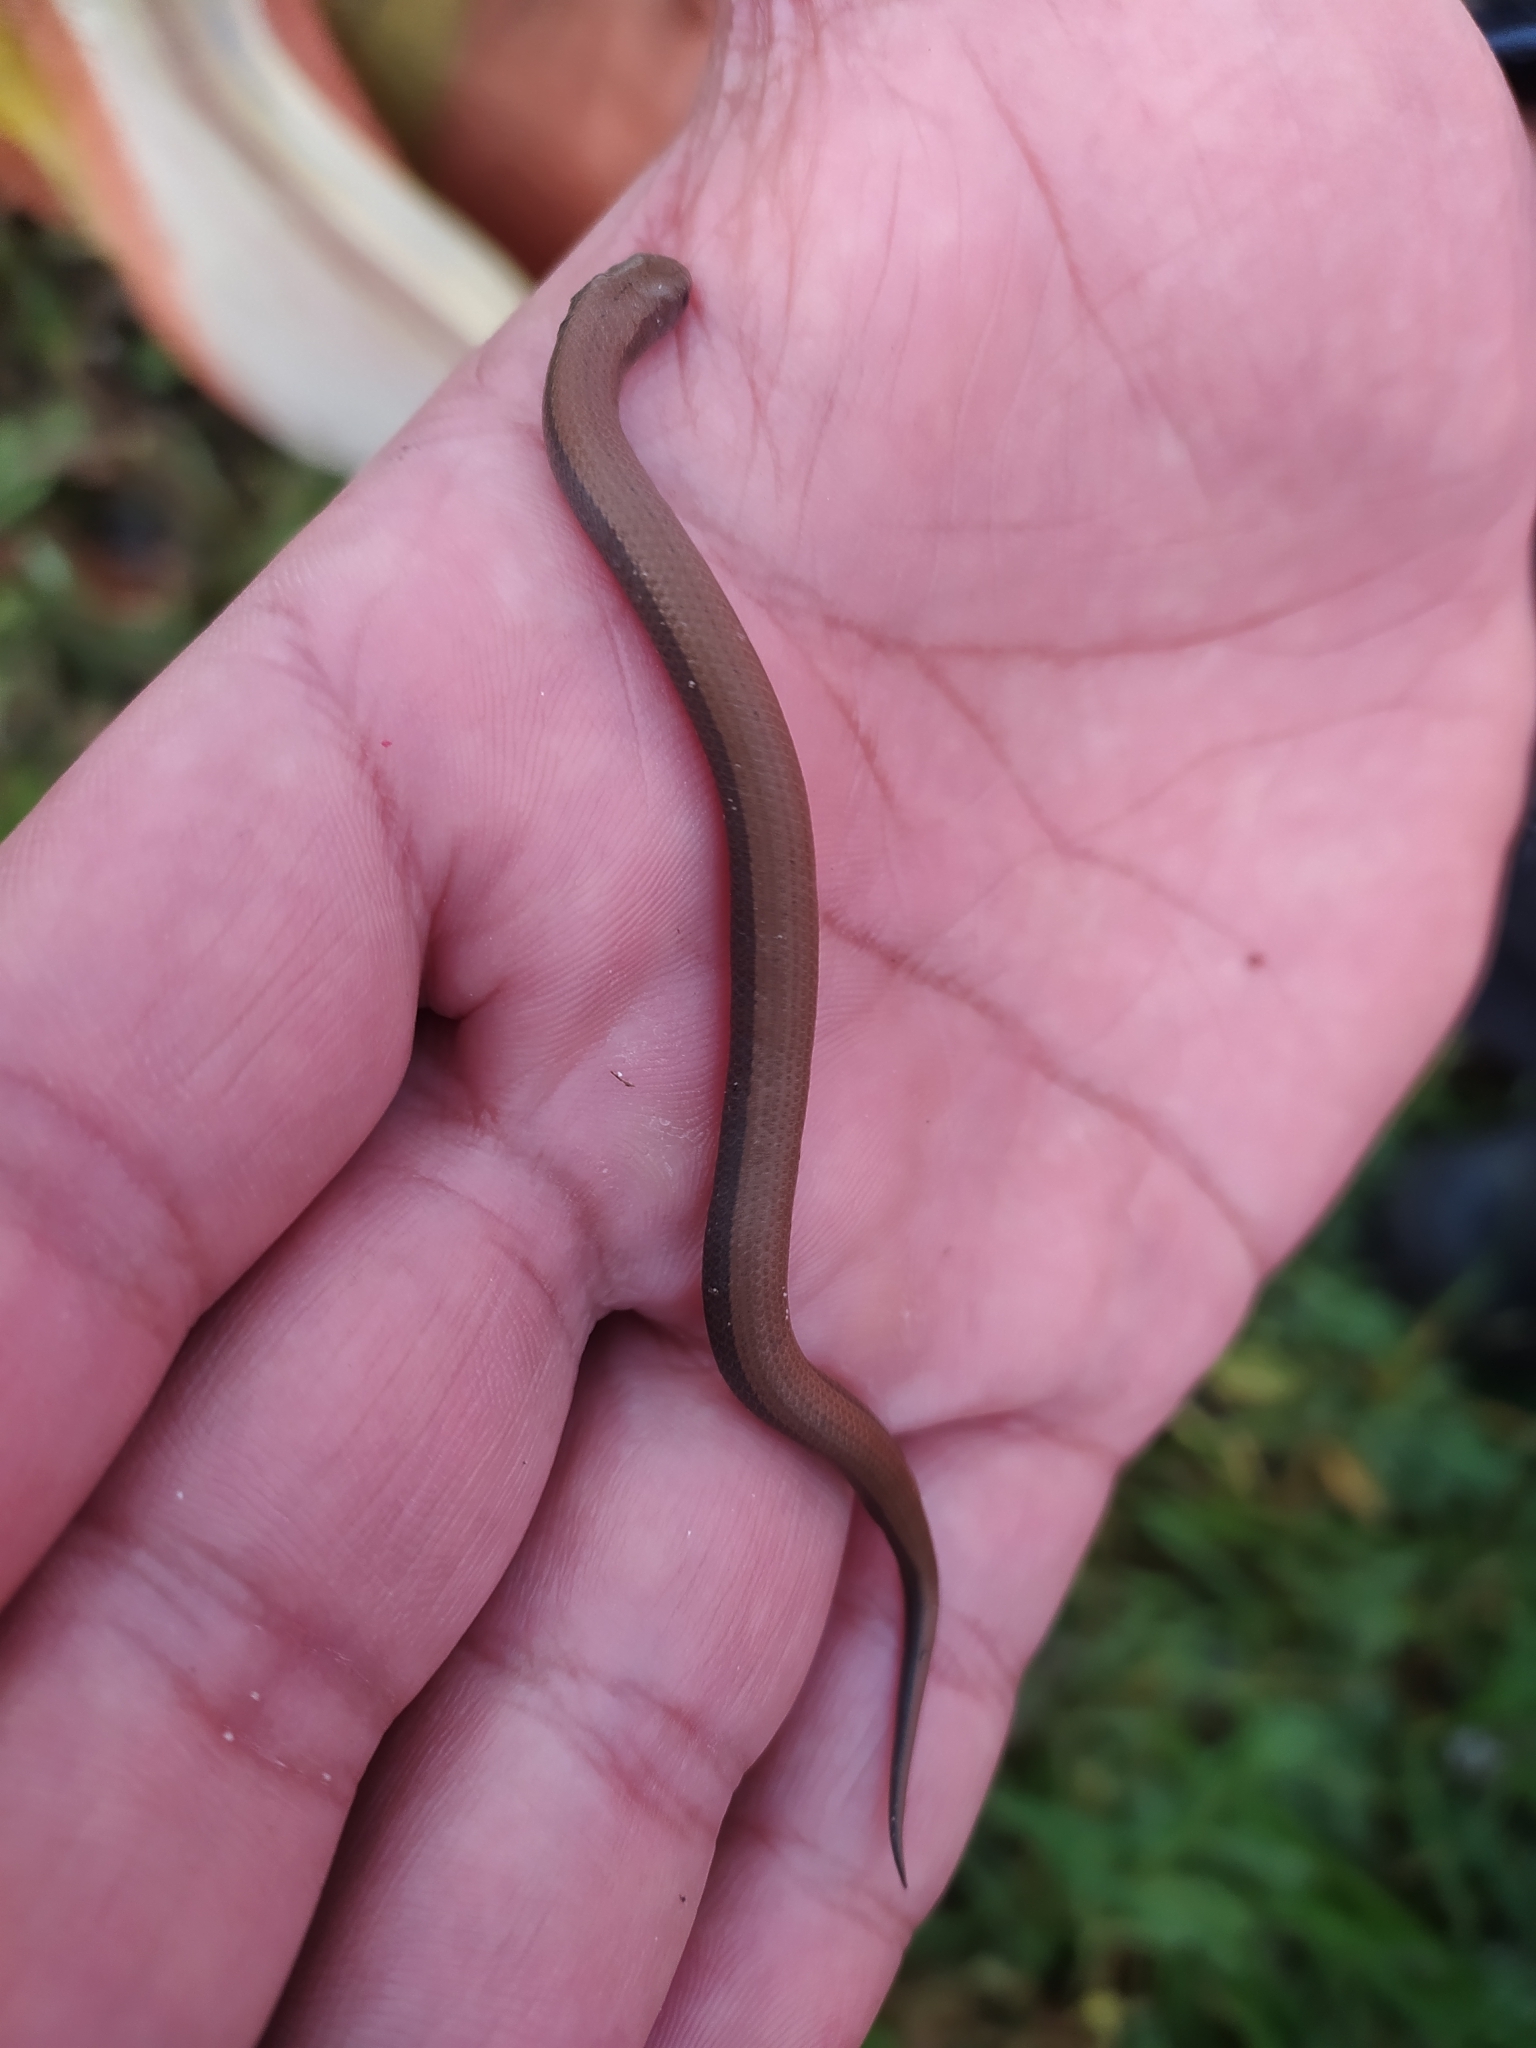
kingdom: Animalia
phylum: Chordata
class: Squamata
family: Pseudoxyrhophiidae
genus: Duberria
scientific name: Duberria lutrix
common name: Common slug eater
